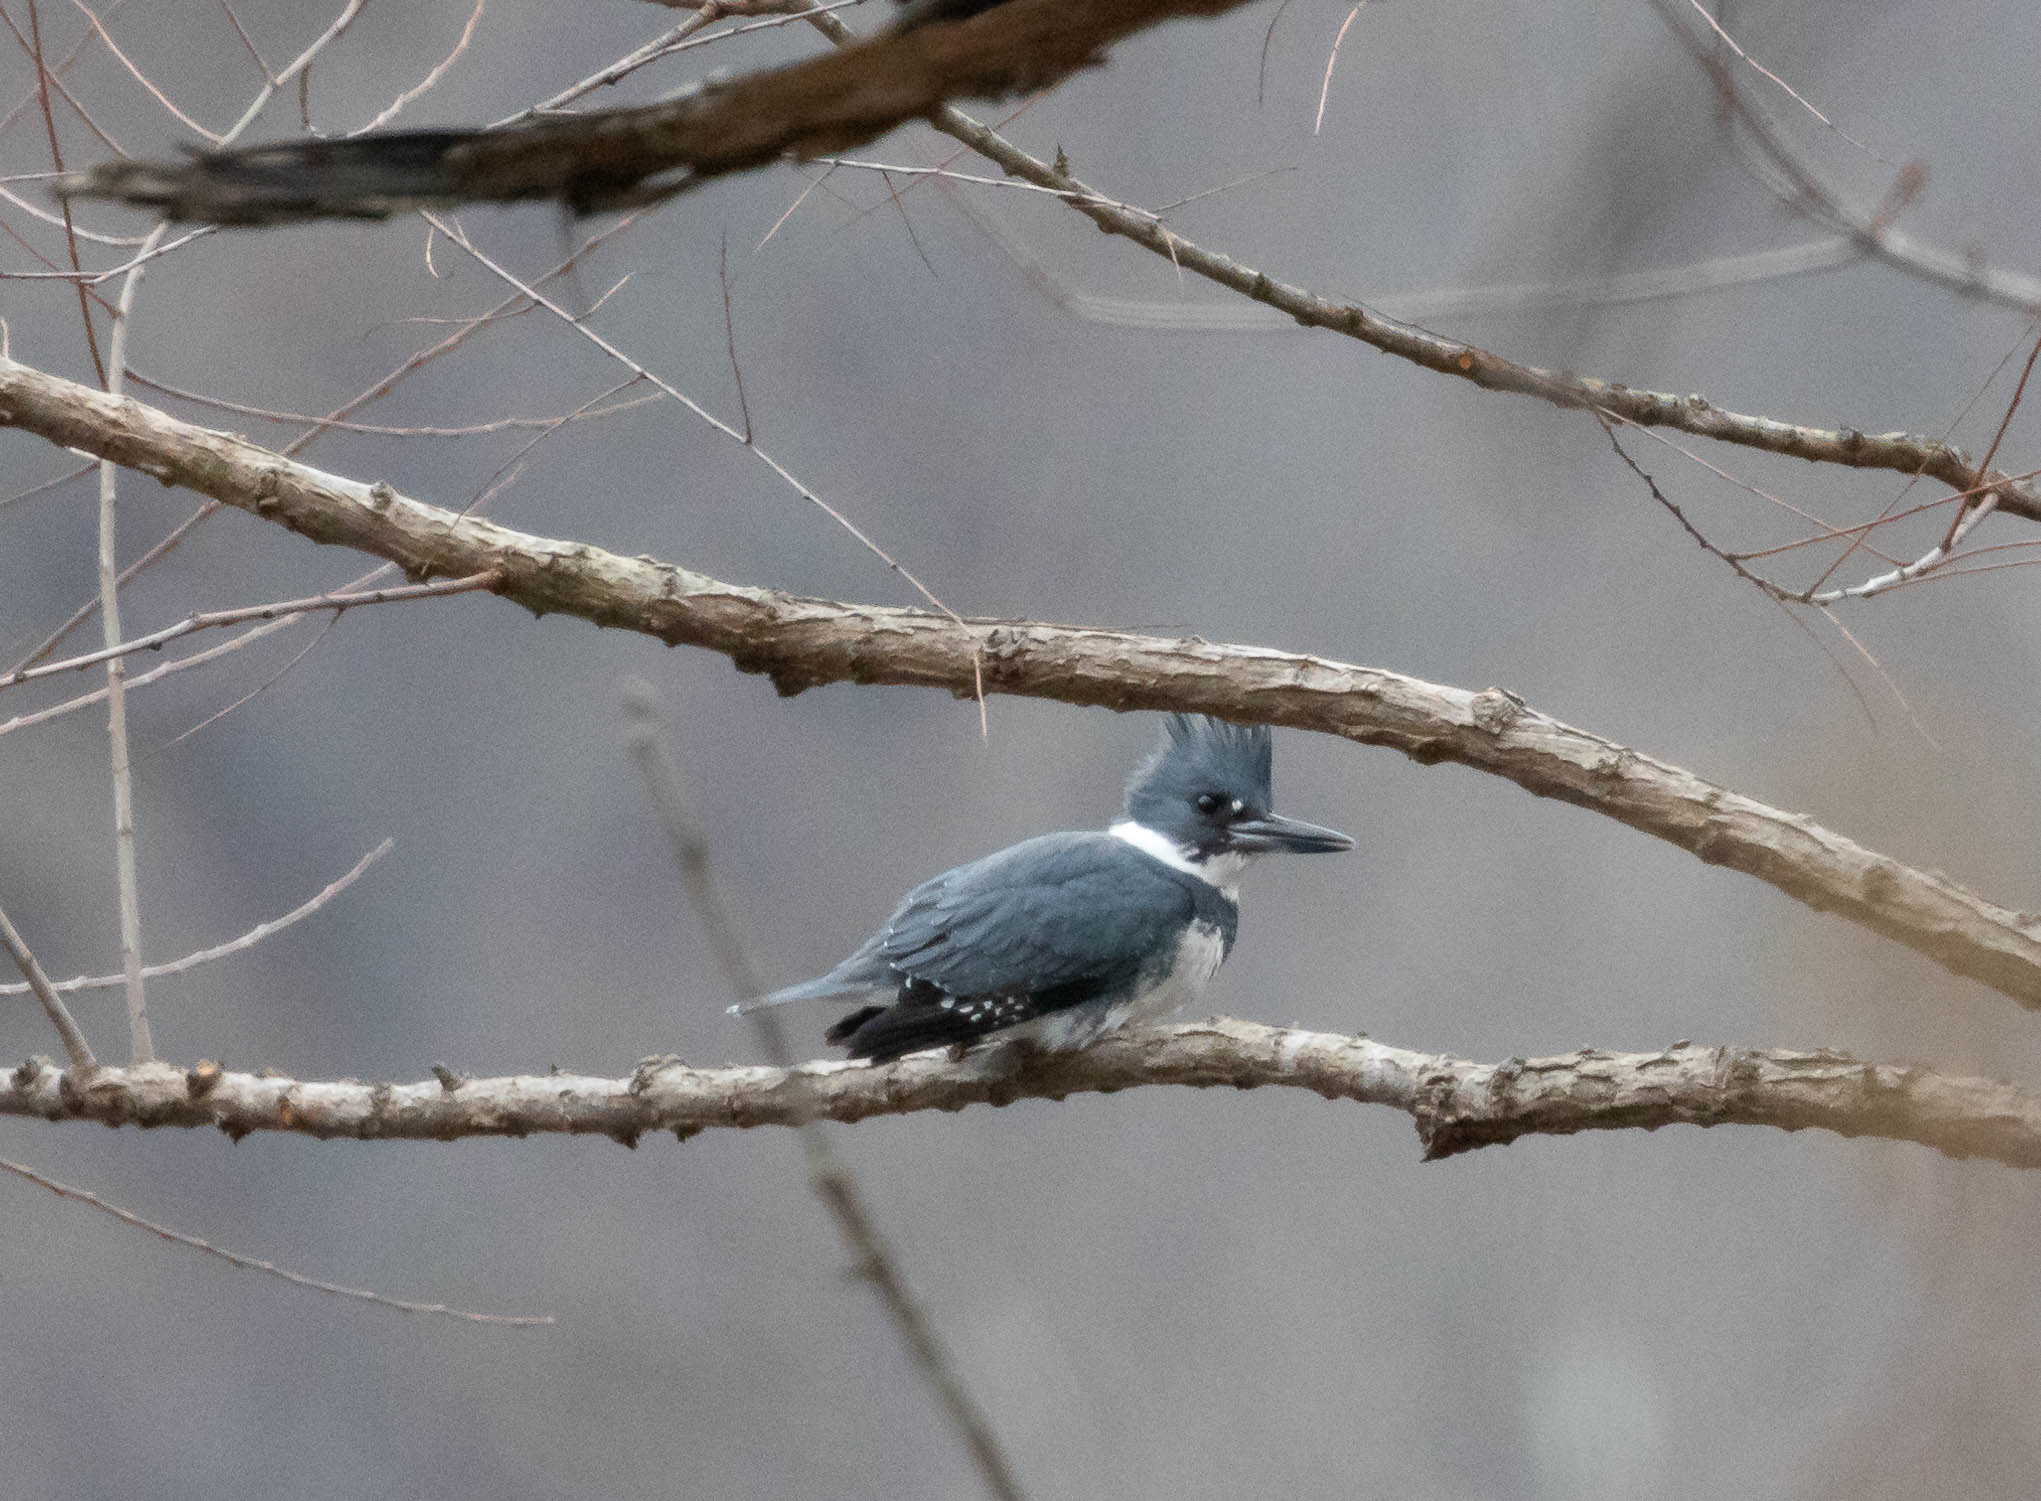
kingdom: Animalia
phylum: Chordata
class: Aves
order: Coraciiformes
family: Alcedinidae
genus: Megaceryle
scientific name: Megaceryle alcyon
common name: Belted kingfisher
